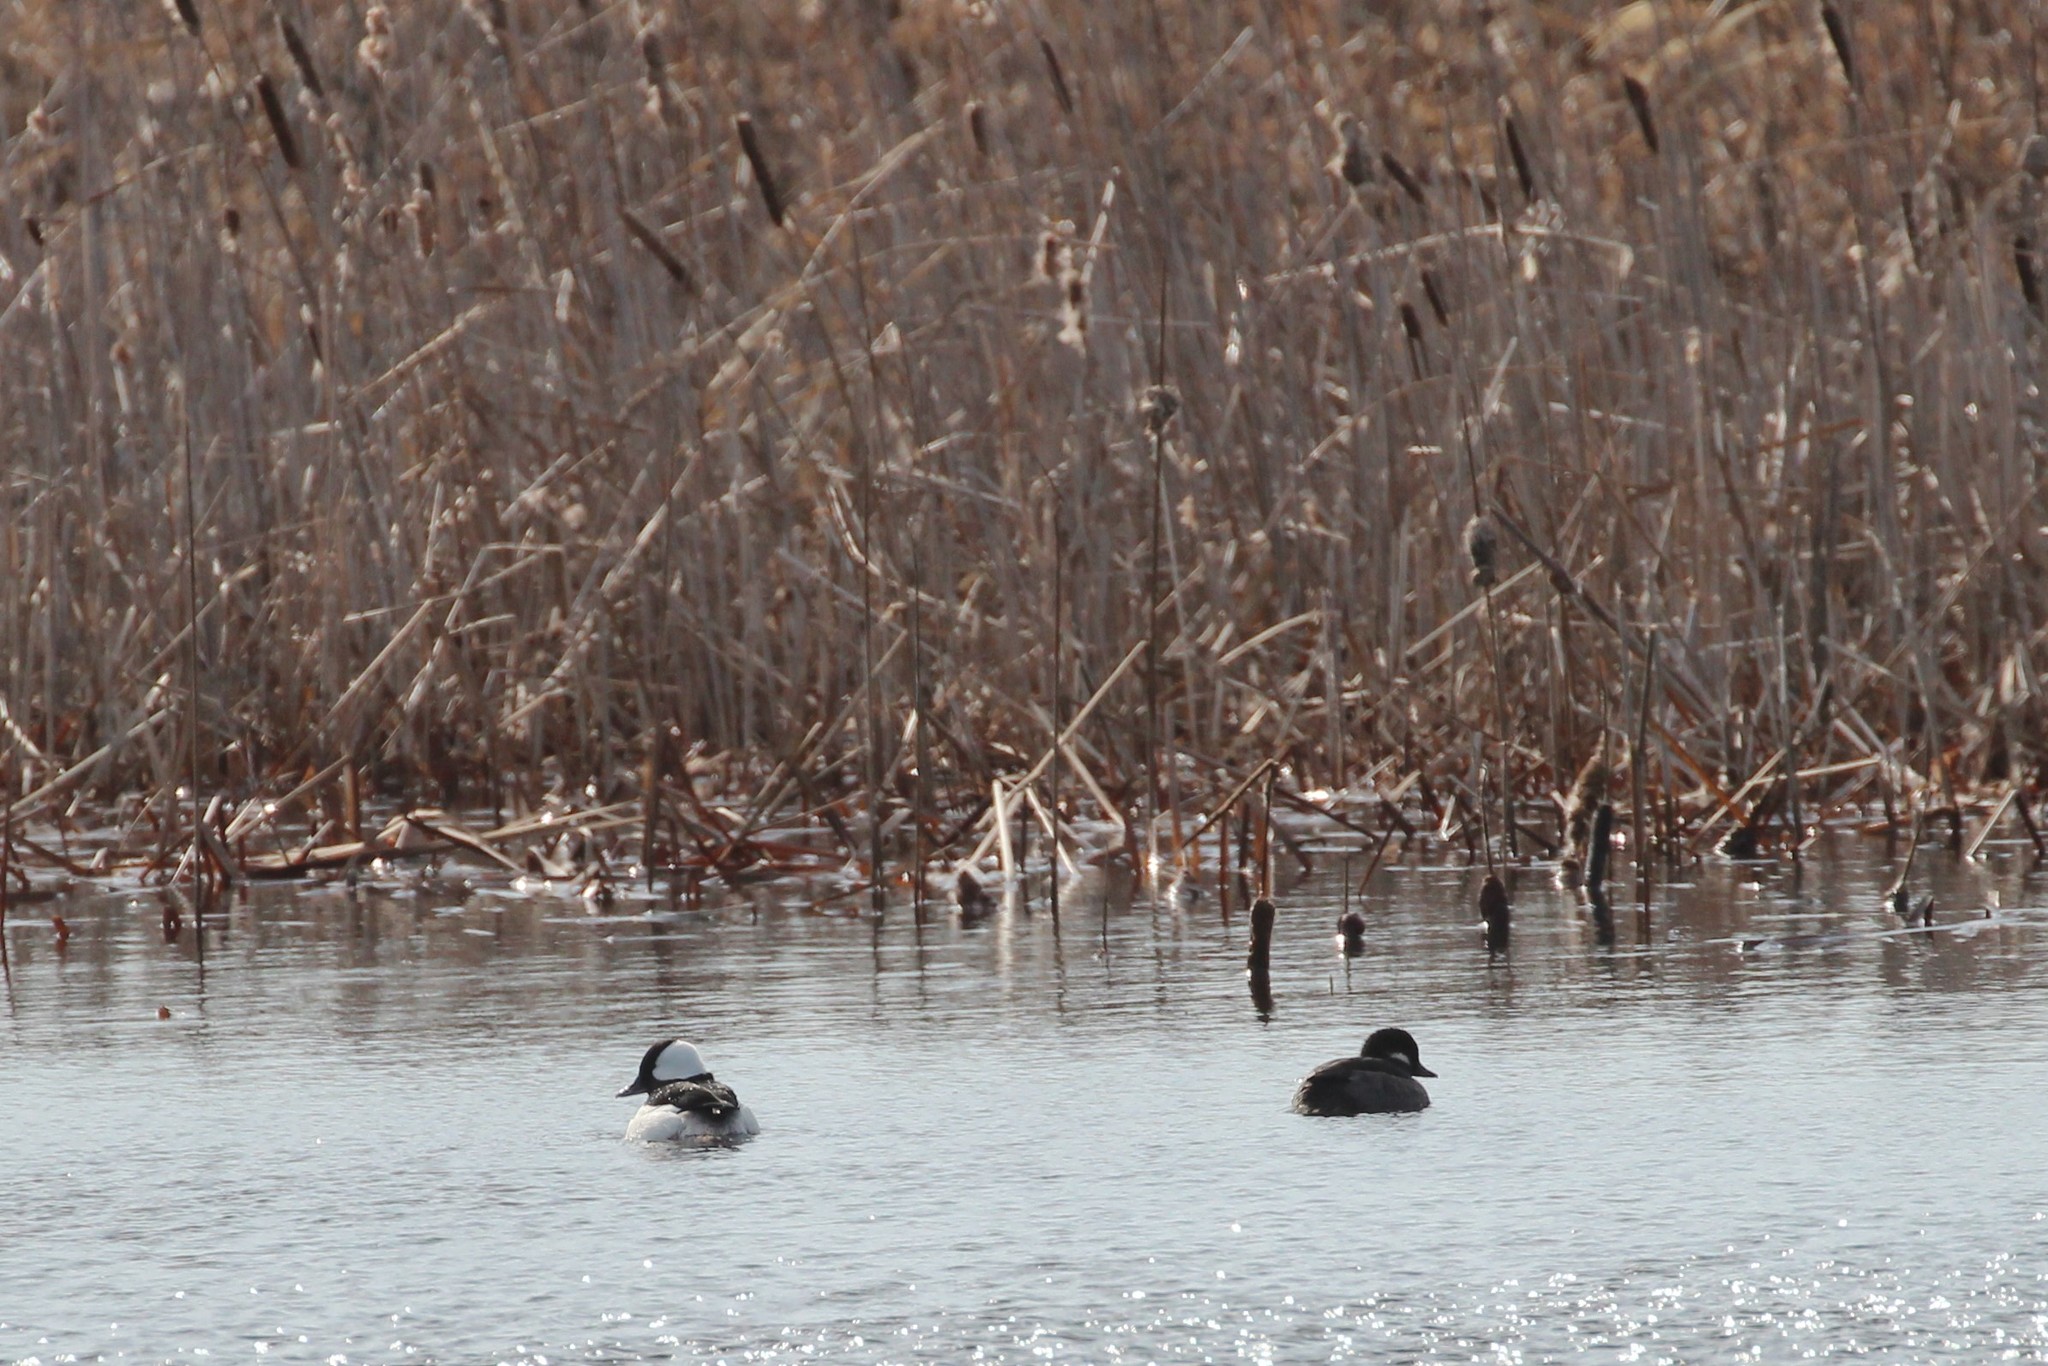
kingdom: Animalia
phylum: Chordata
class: Aves
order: Anseriformes
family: Anatidae
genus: Bucephala
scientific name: Bucephala albeola
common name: Bufflehead
